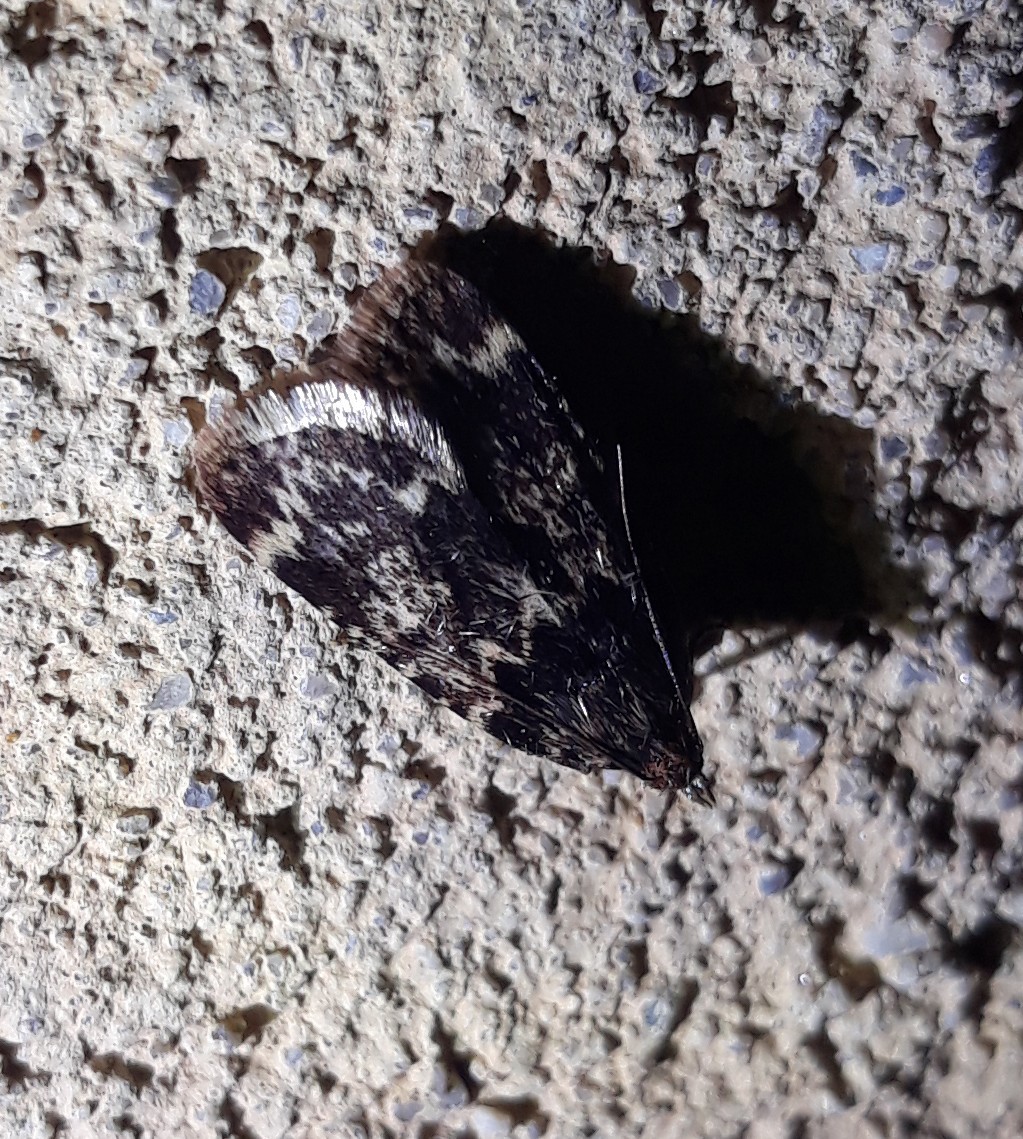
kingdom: Animalia
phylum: Arthropoda
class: Insecta
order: Lepidoptera
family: Pyralidae
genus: Aglossa
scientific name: Aglossa caprealis
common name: Small tabby
